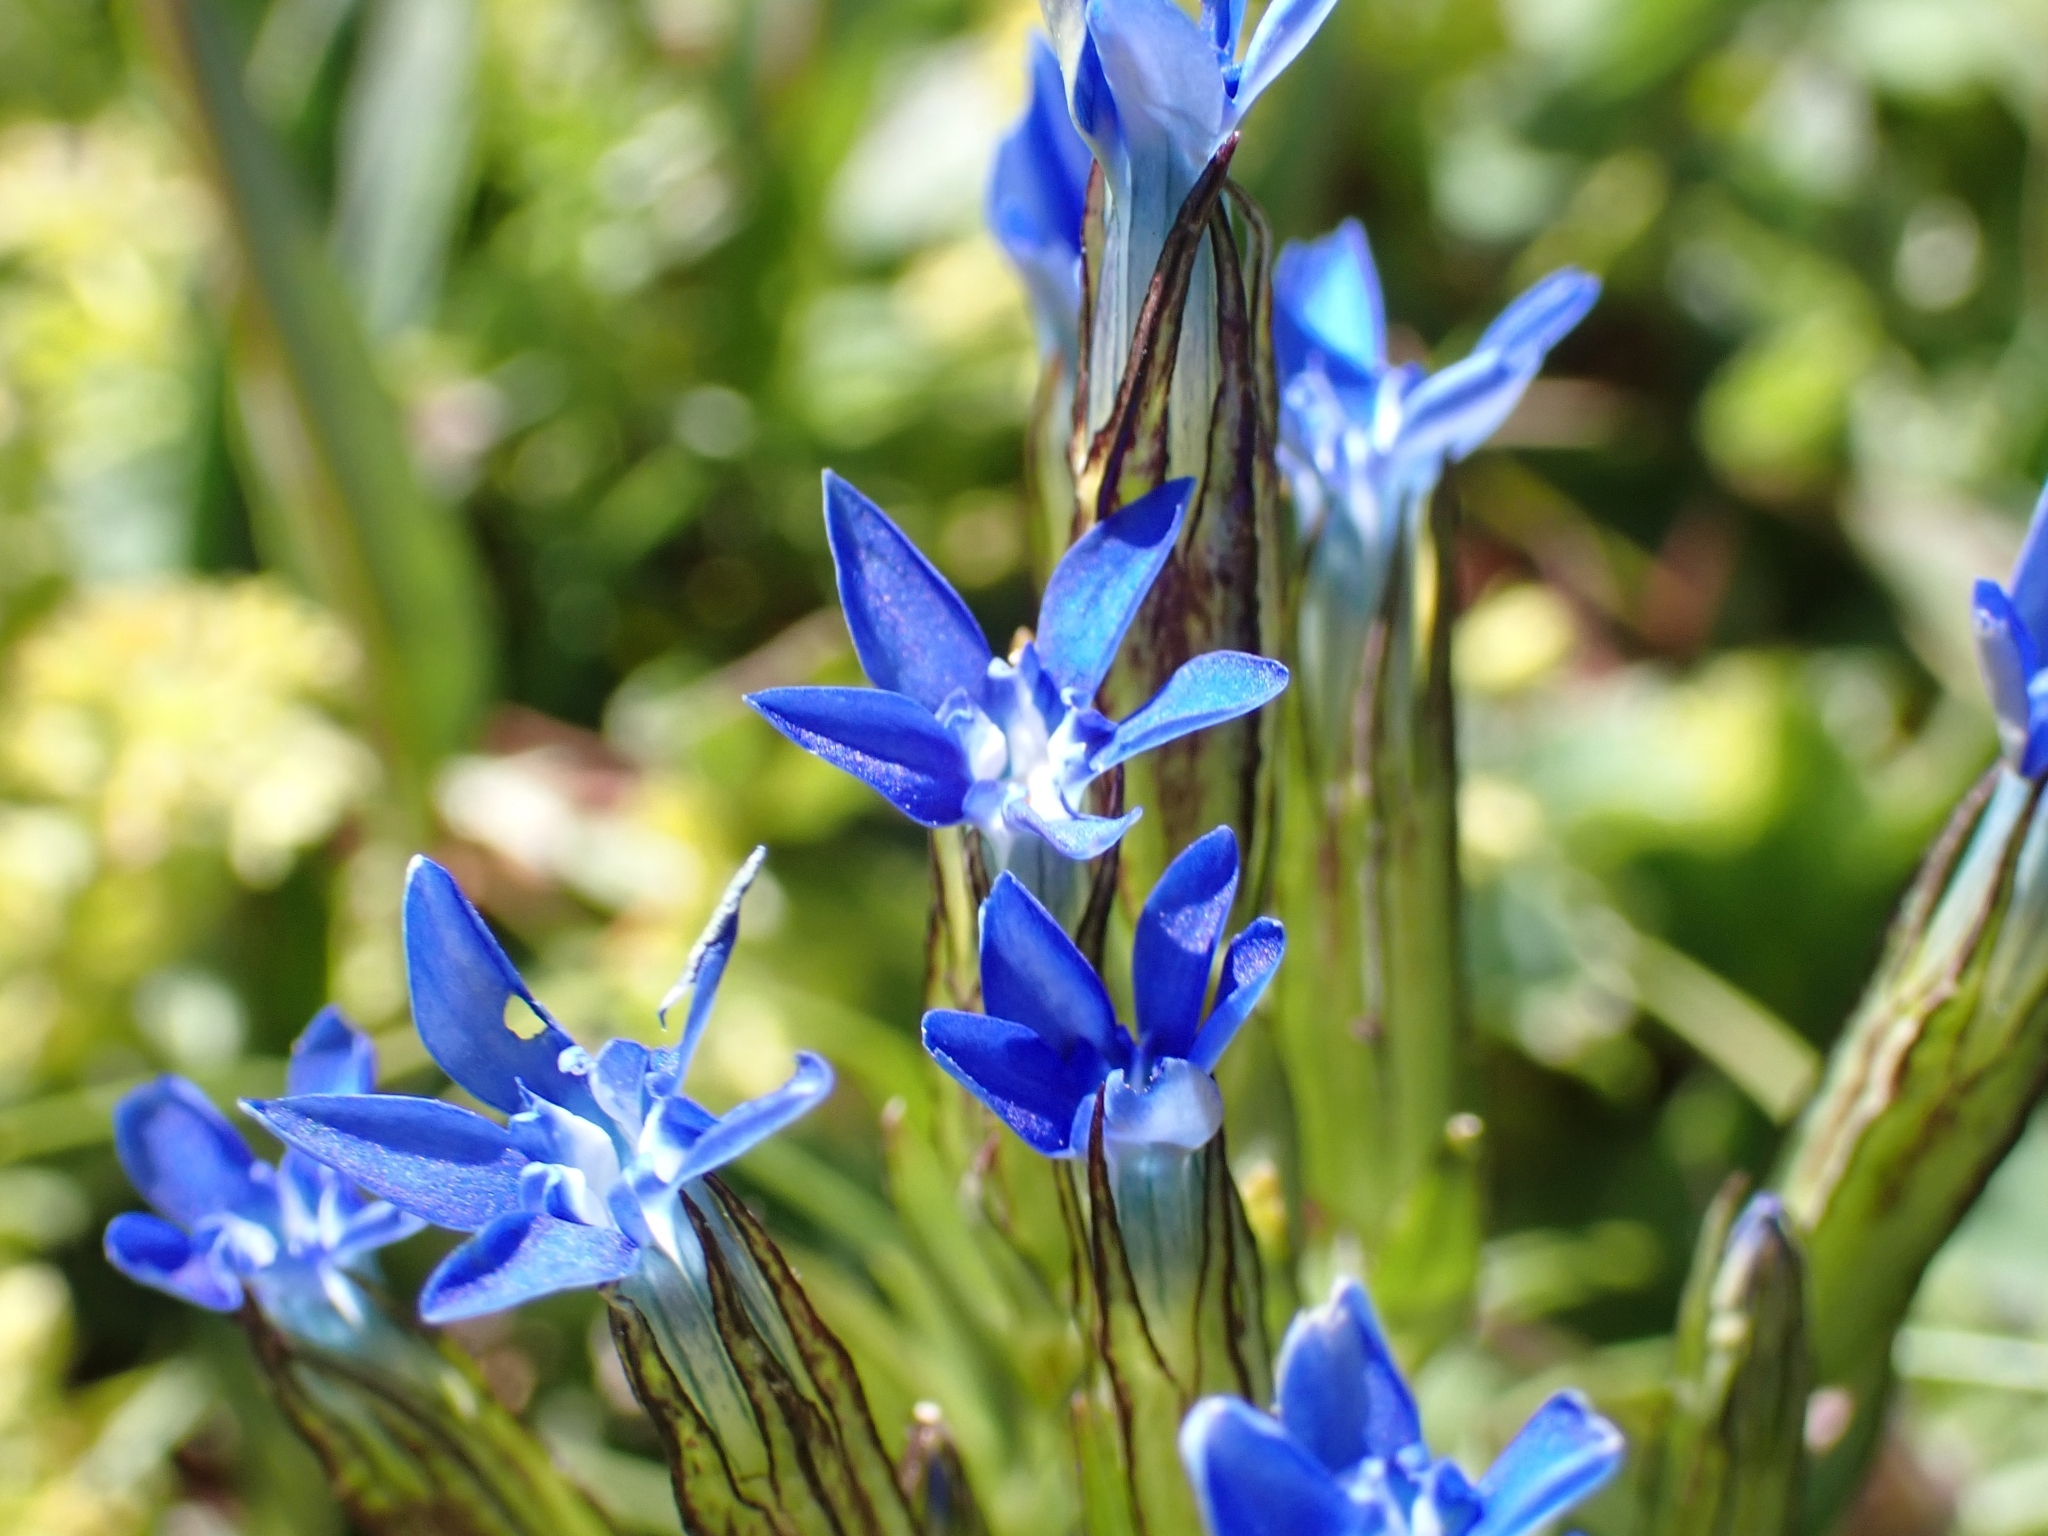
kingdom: Plantae
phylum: Tracheophyta
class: Magnoliopsida
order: Gentianales
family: Gentianaceae
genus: Gentiana
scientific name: Gentiana nivalis
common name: Alpine gentian
